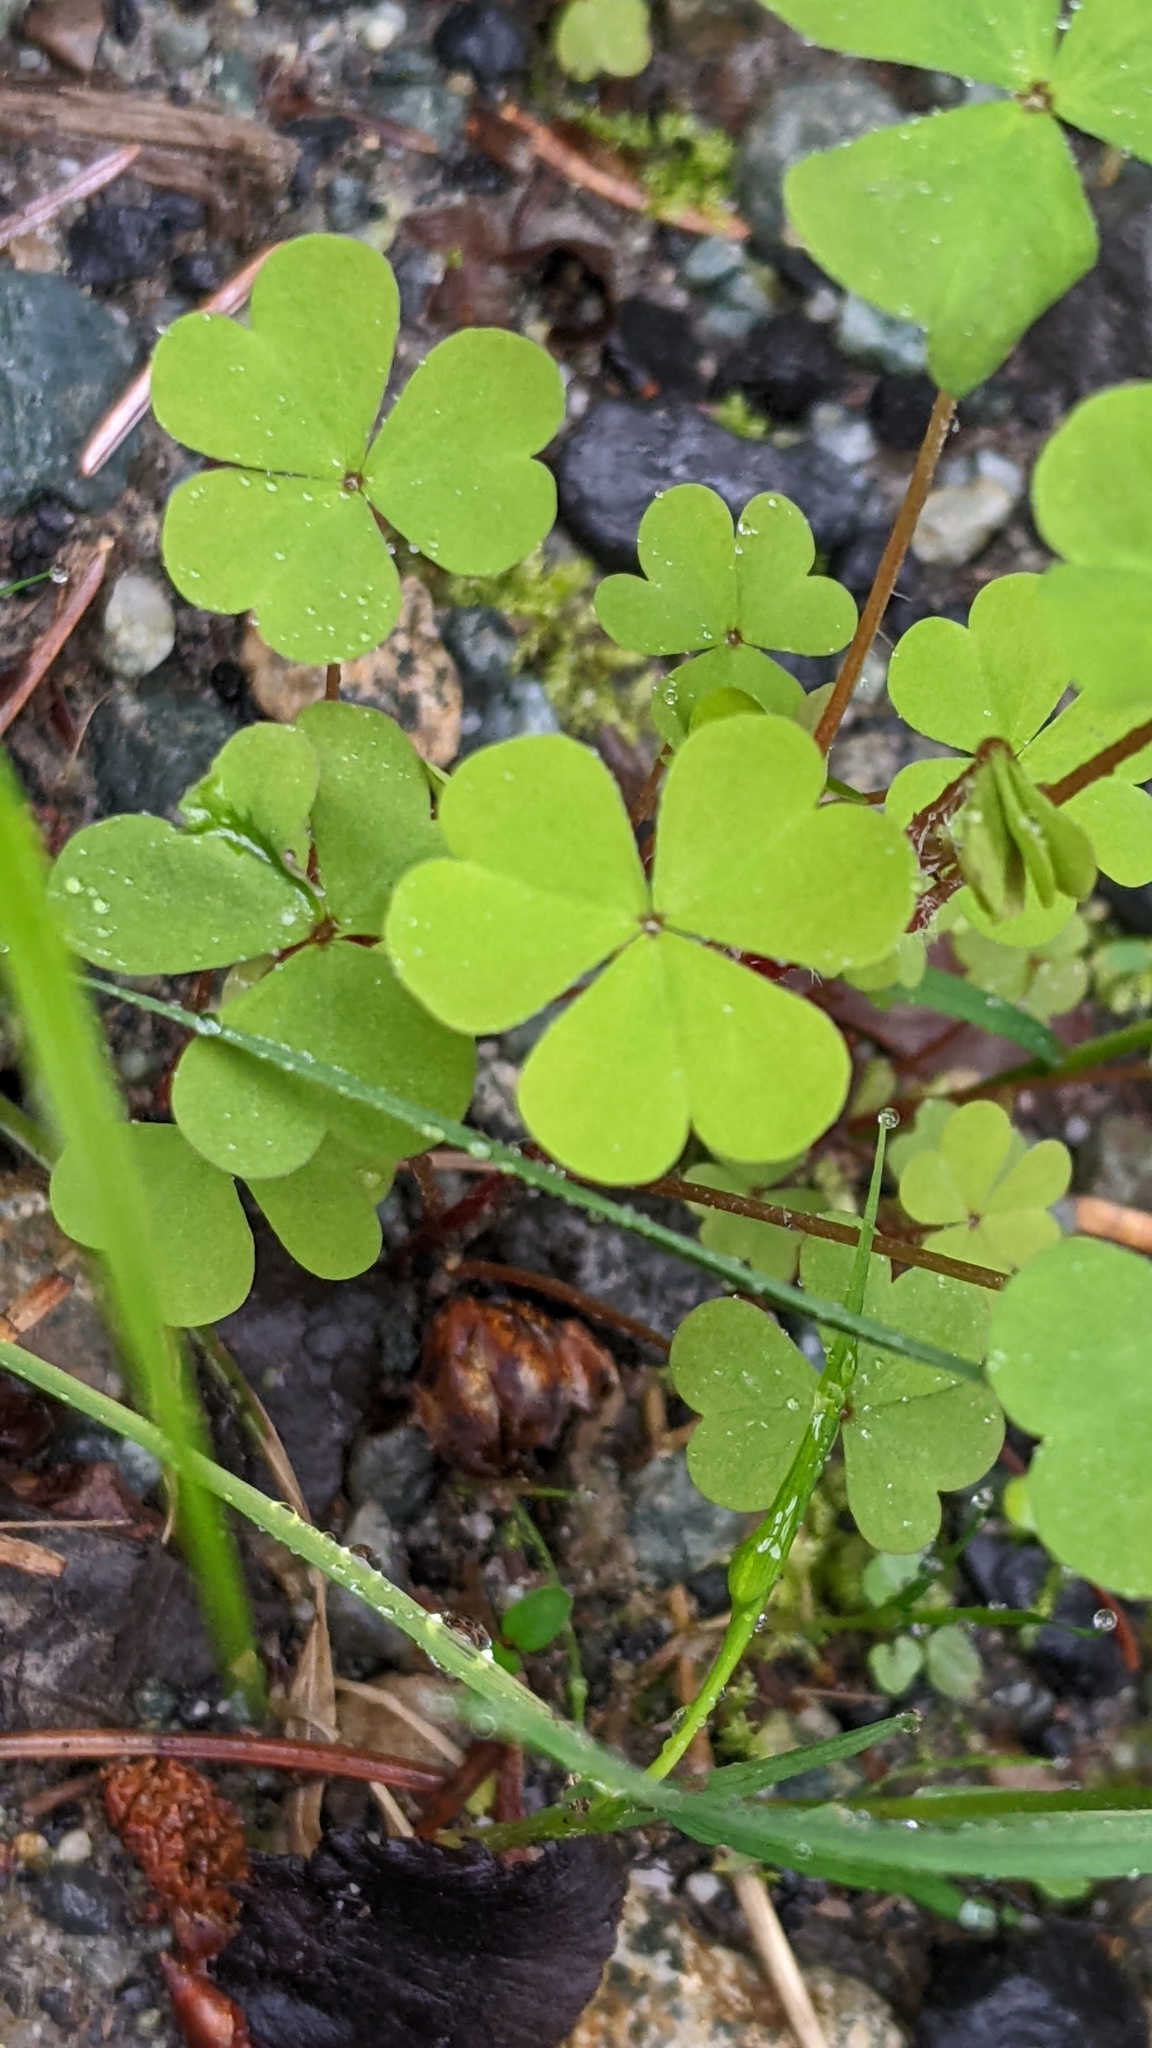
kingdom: Plantae
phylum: Tracheophyta
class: Magnoliopsida
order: Oxalidales
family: Oxalidaceae
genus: Oxalis
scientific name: Oxalis corniculata
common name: Procumbent yellow-sorrel
